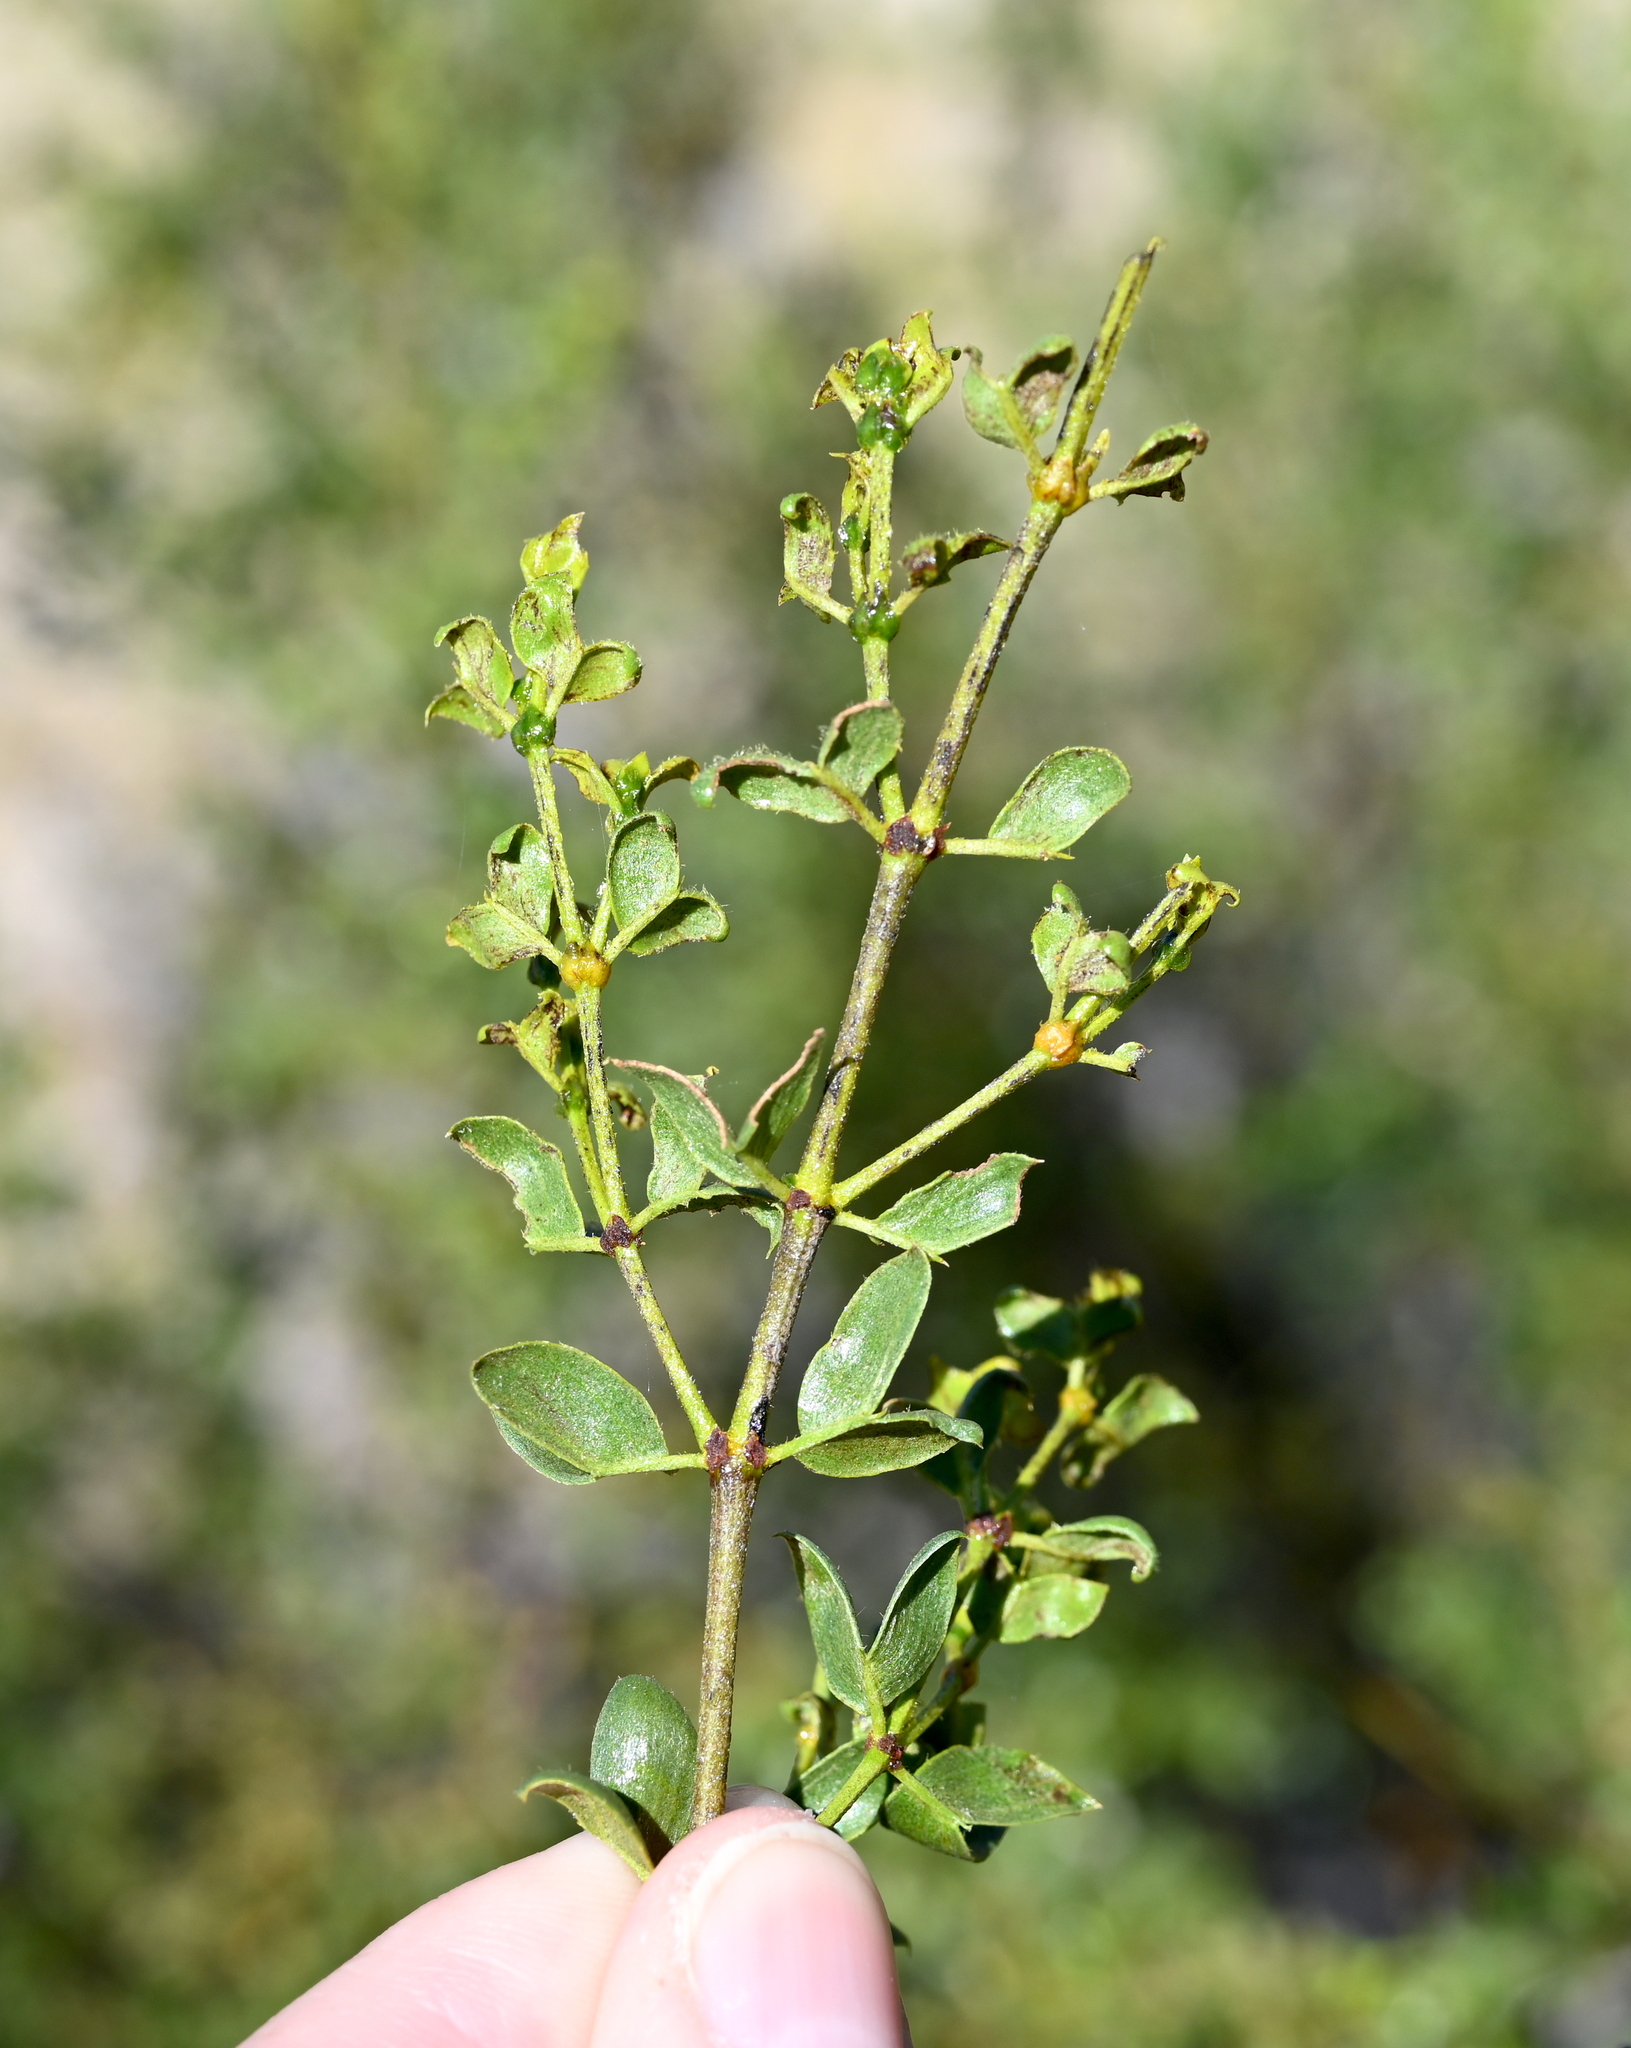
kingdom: Plantae
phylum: Tracheophyta
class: Magnoliopsida
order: Zygophyllales
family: Zygophyllaceae
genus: Larrea
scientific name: Larrea tridentata
